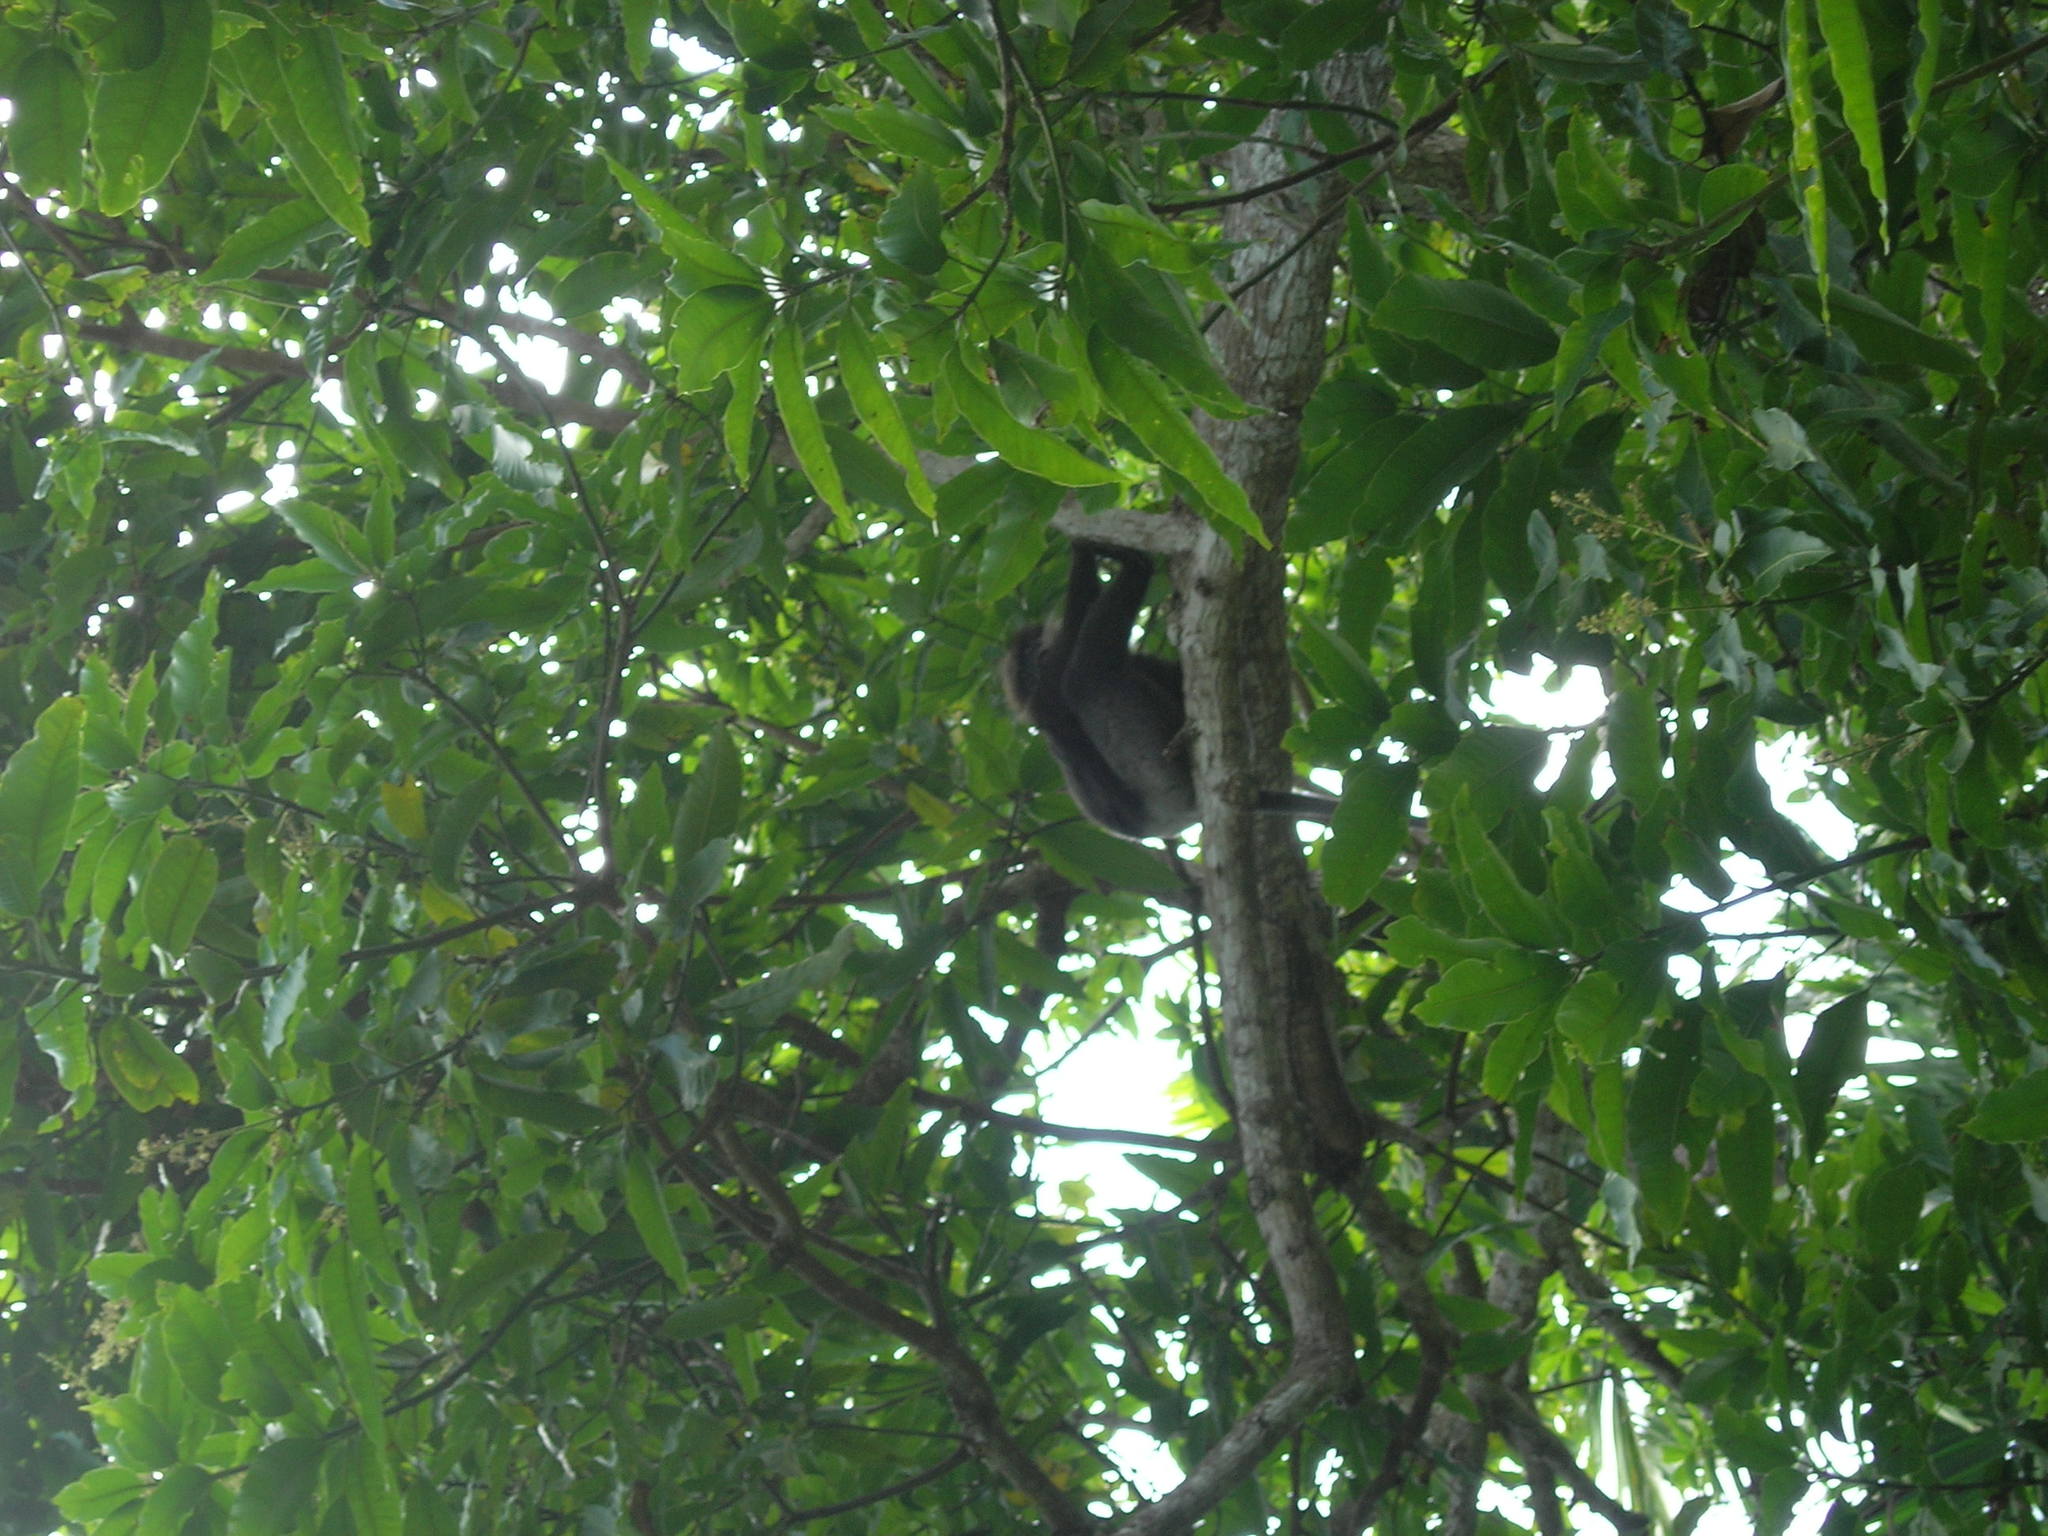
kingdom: Animalia
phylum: Chordata
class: Mammalia
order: Primates
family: Cercopithecidae
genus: Semnopithecus
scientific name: Semnopithecus vetulus
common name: Purple-faced langur
